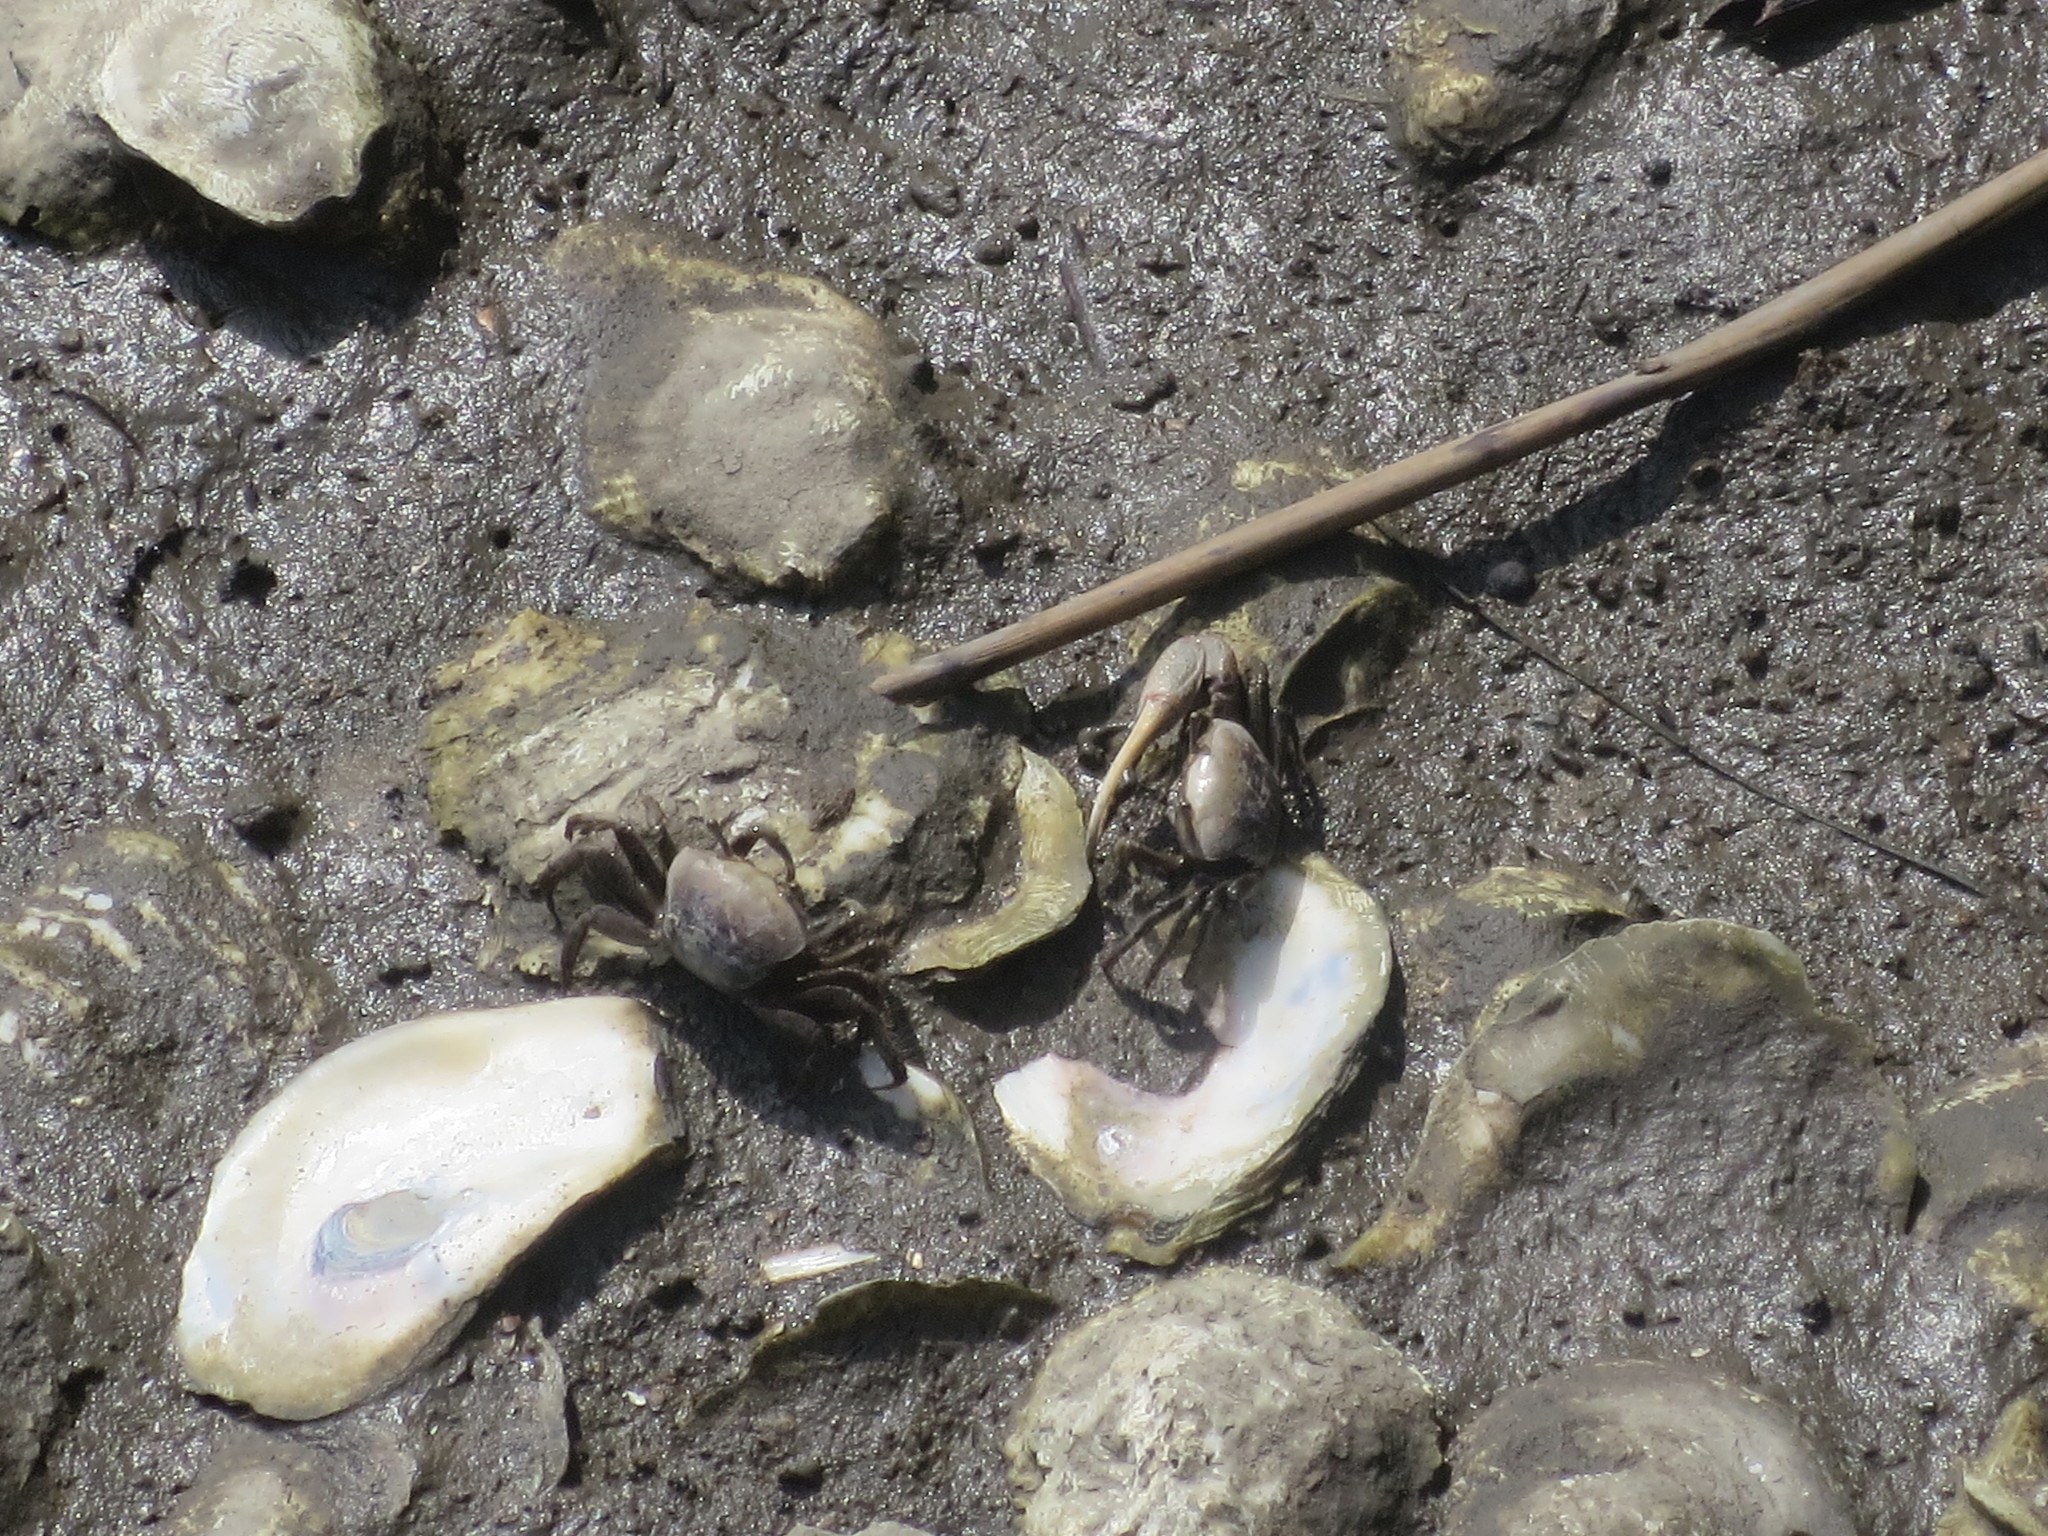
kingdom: Animalia
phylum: Arthropoda
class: Malacostraca
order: Decapoda
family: Ocypodidae
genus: Minuca
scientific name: Minuca minax
